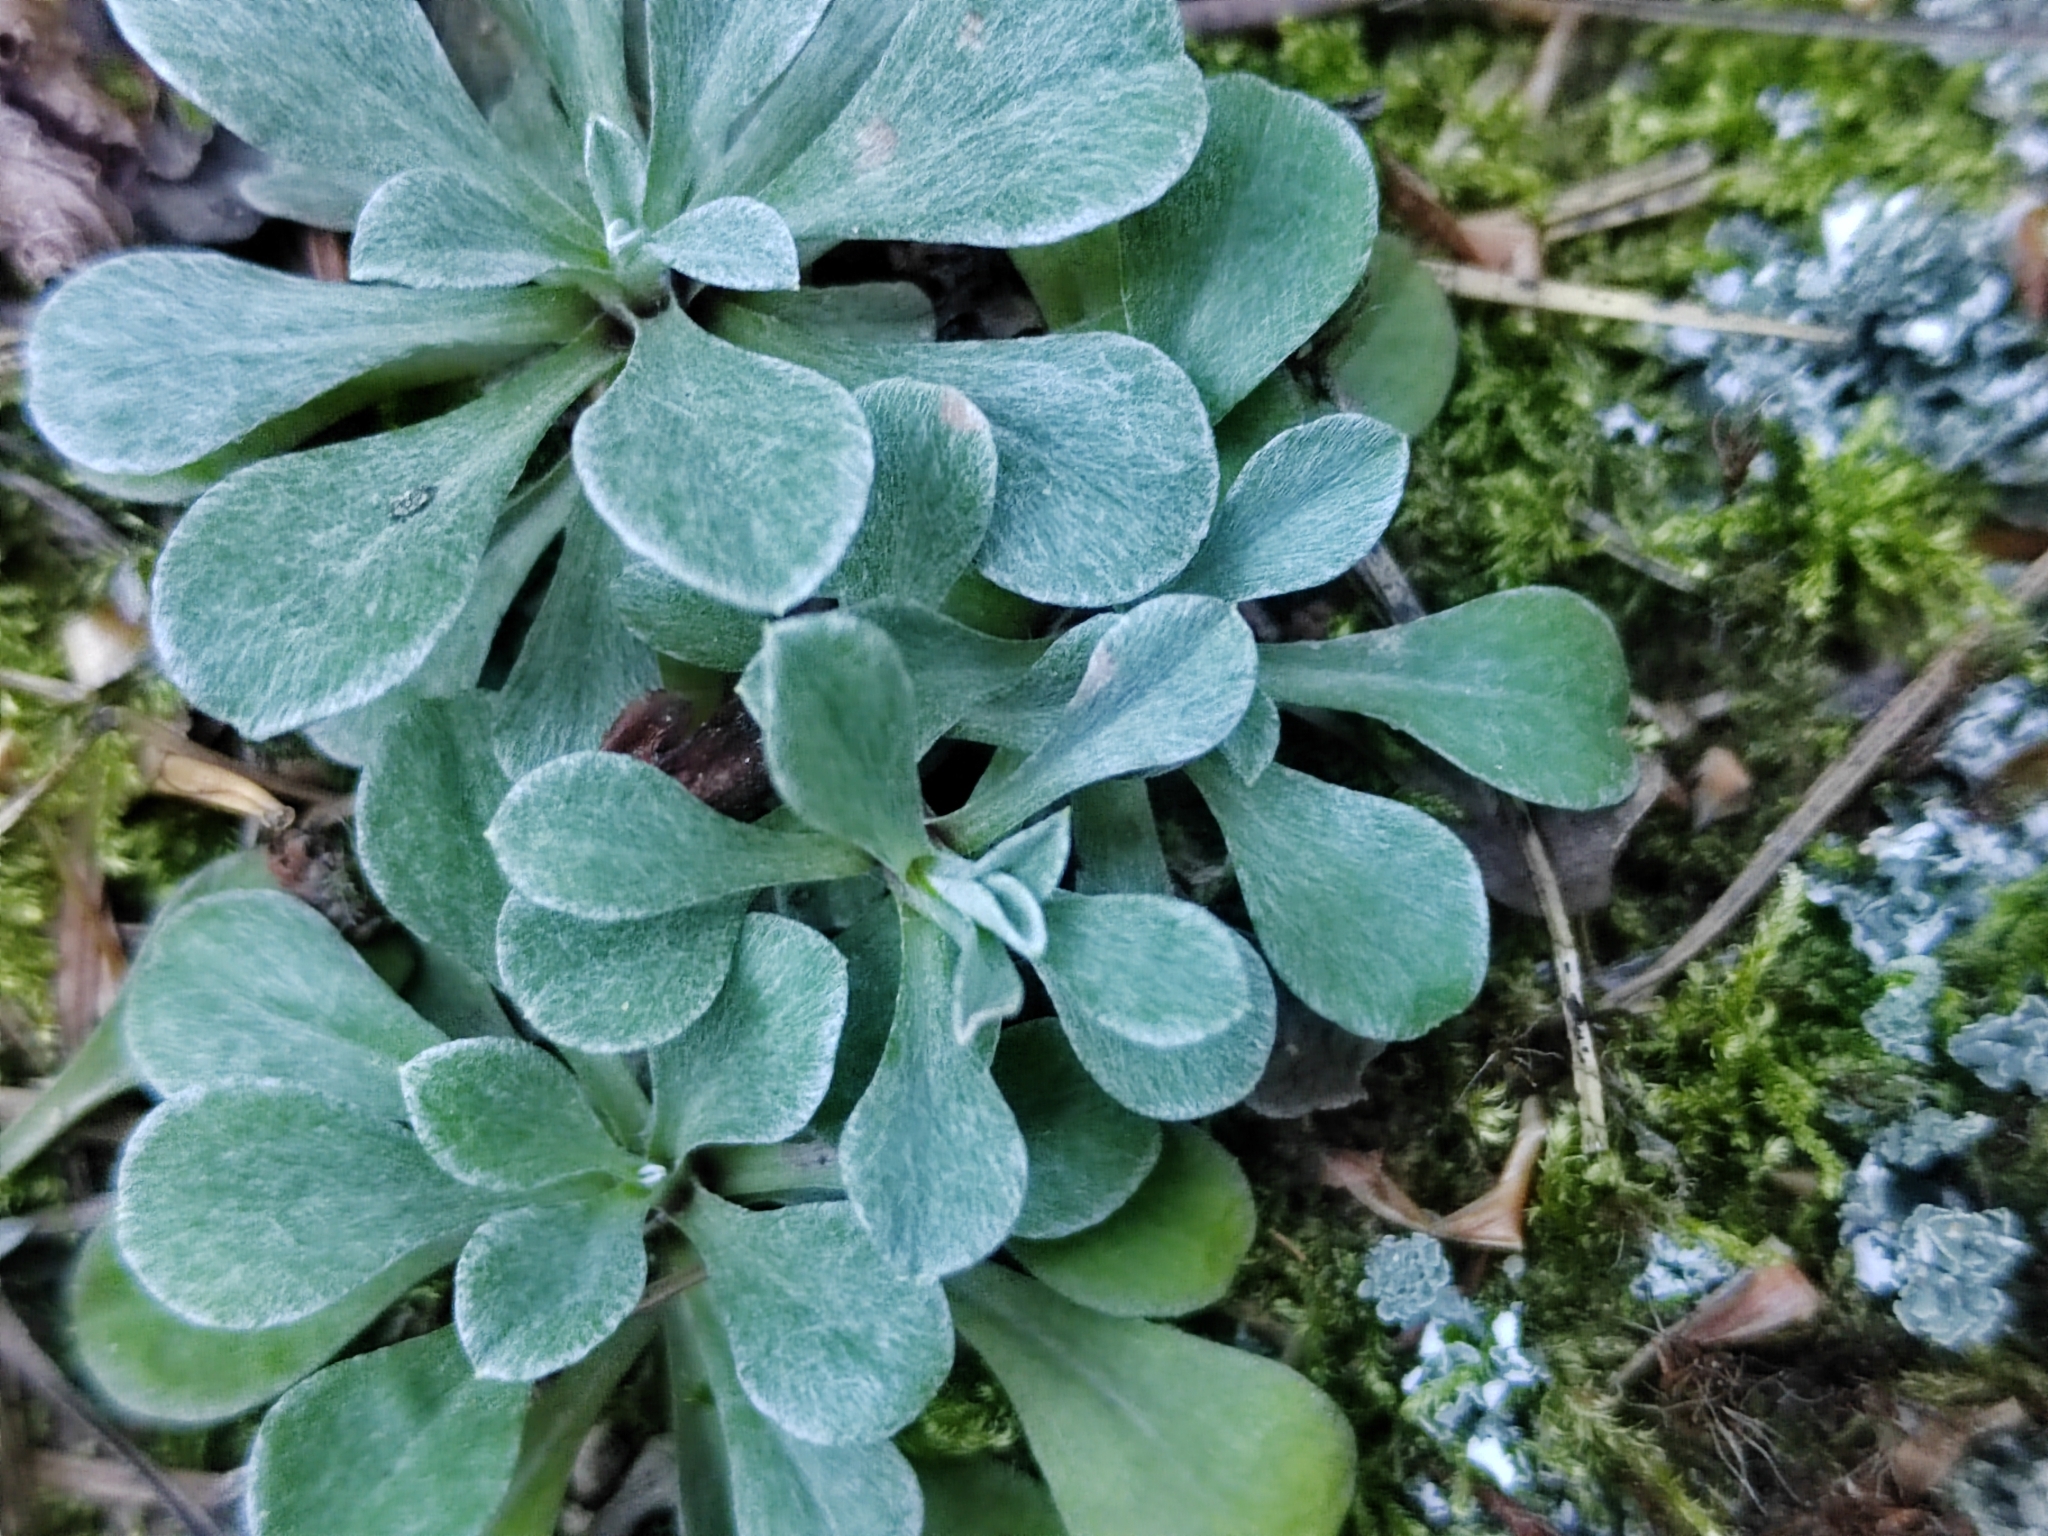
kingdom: Plantae
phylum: Tracheophyta
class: Magnoliopsida
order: Asterales
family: Asteraceae
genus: Antennaria
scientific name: Antennaria dioica
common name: Mountain everlasting
